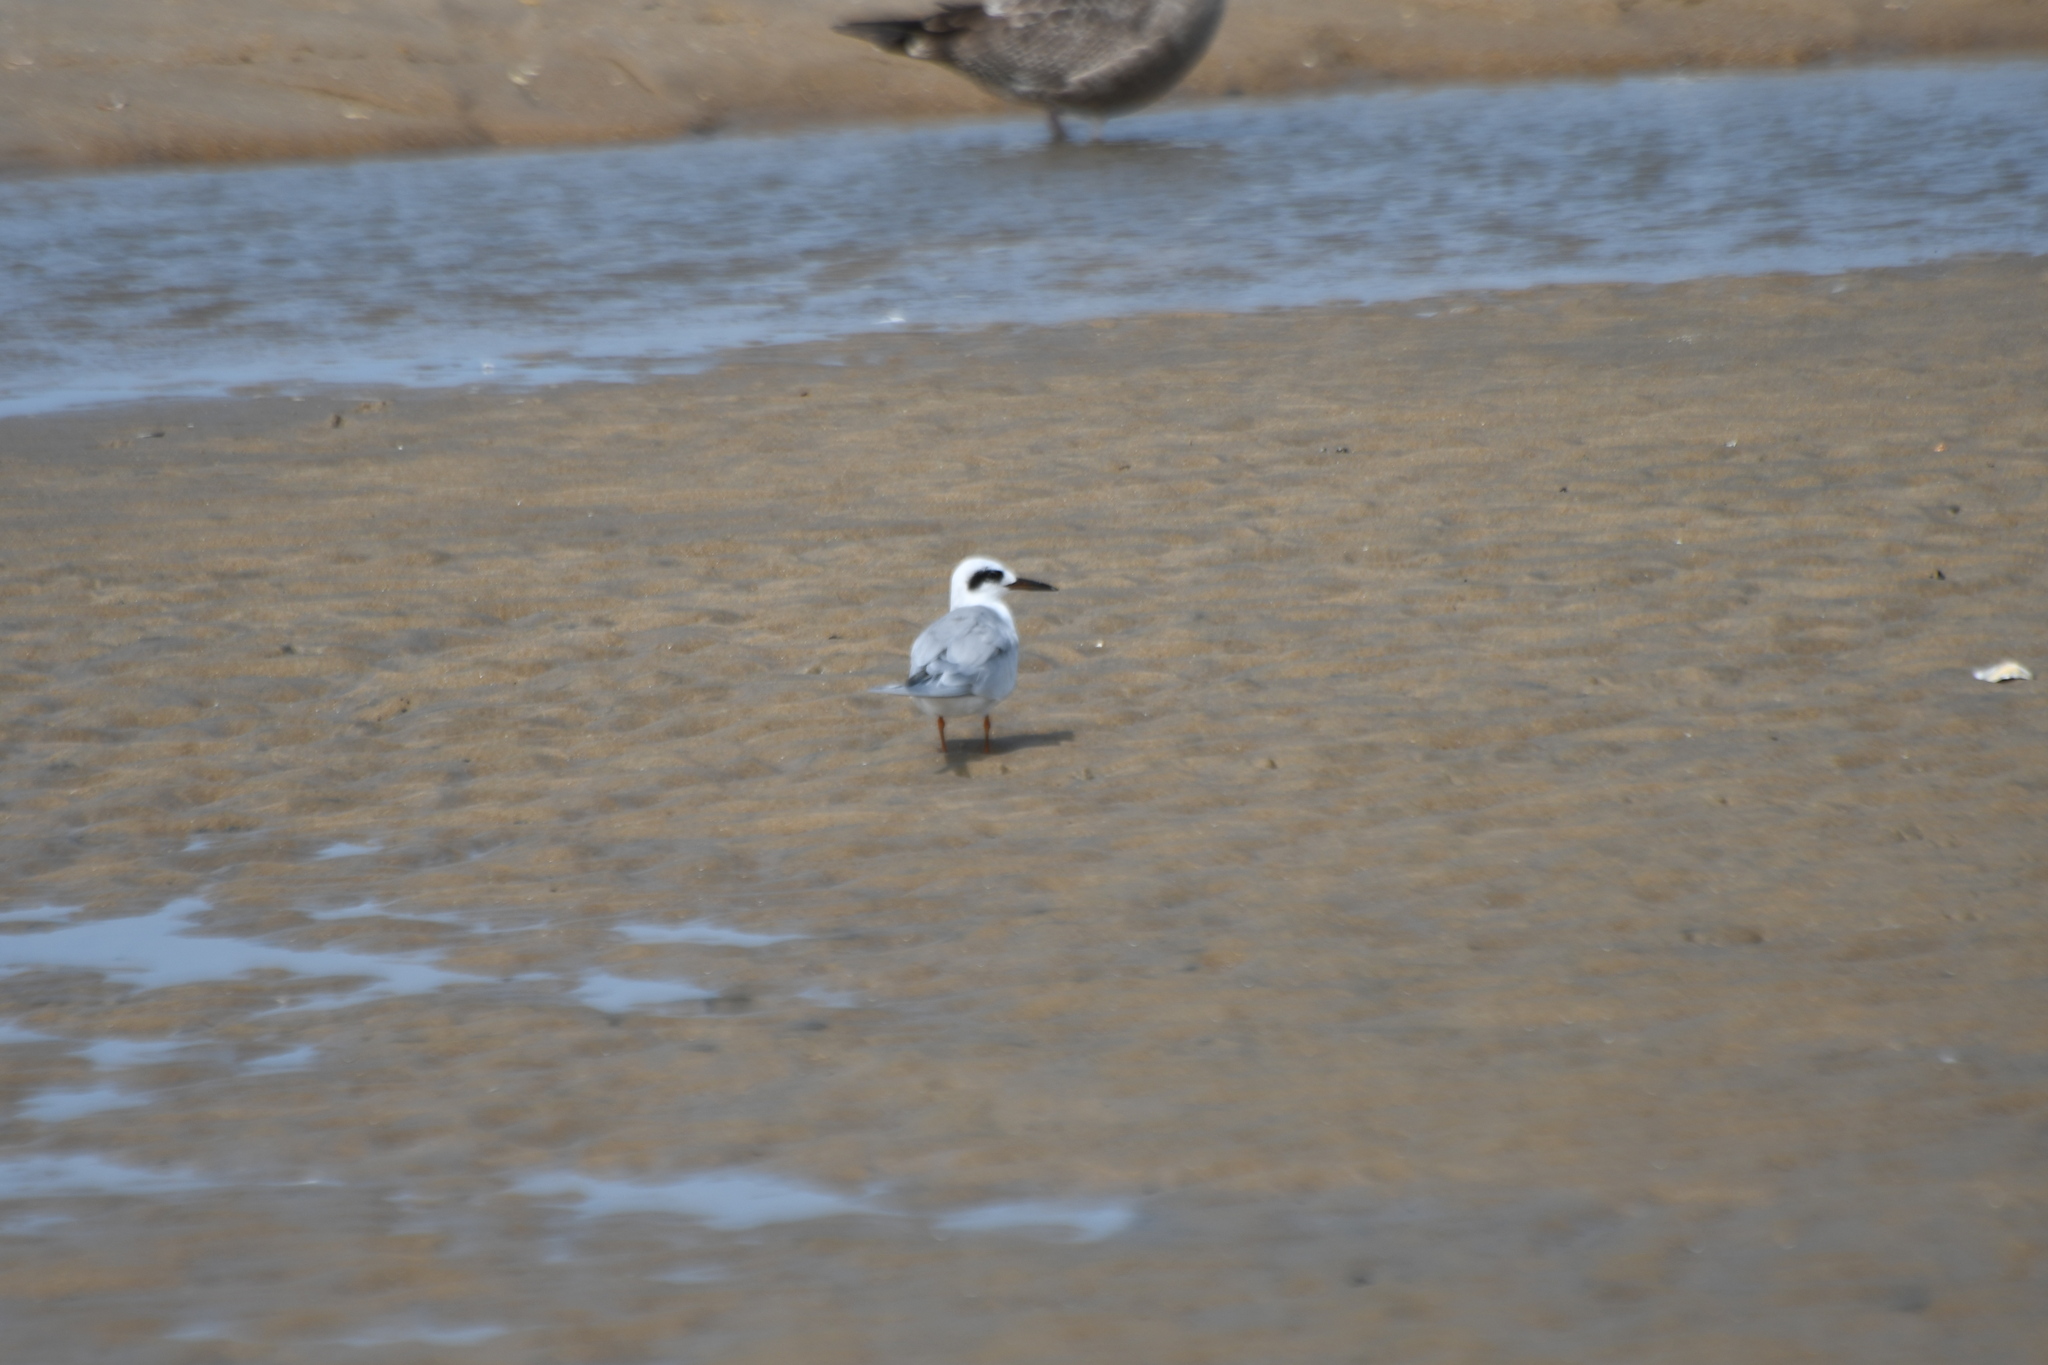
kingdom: Animalia
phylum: Chordata
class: Aves
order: Charadriiformes
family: Laridae
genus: Sterna
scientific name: Sterna forsteri
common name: Forster's tern
